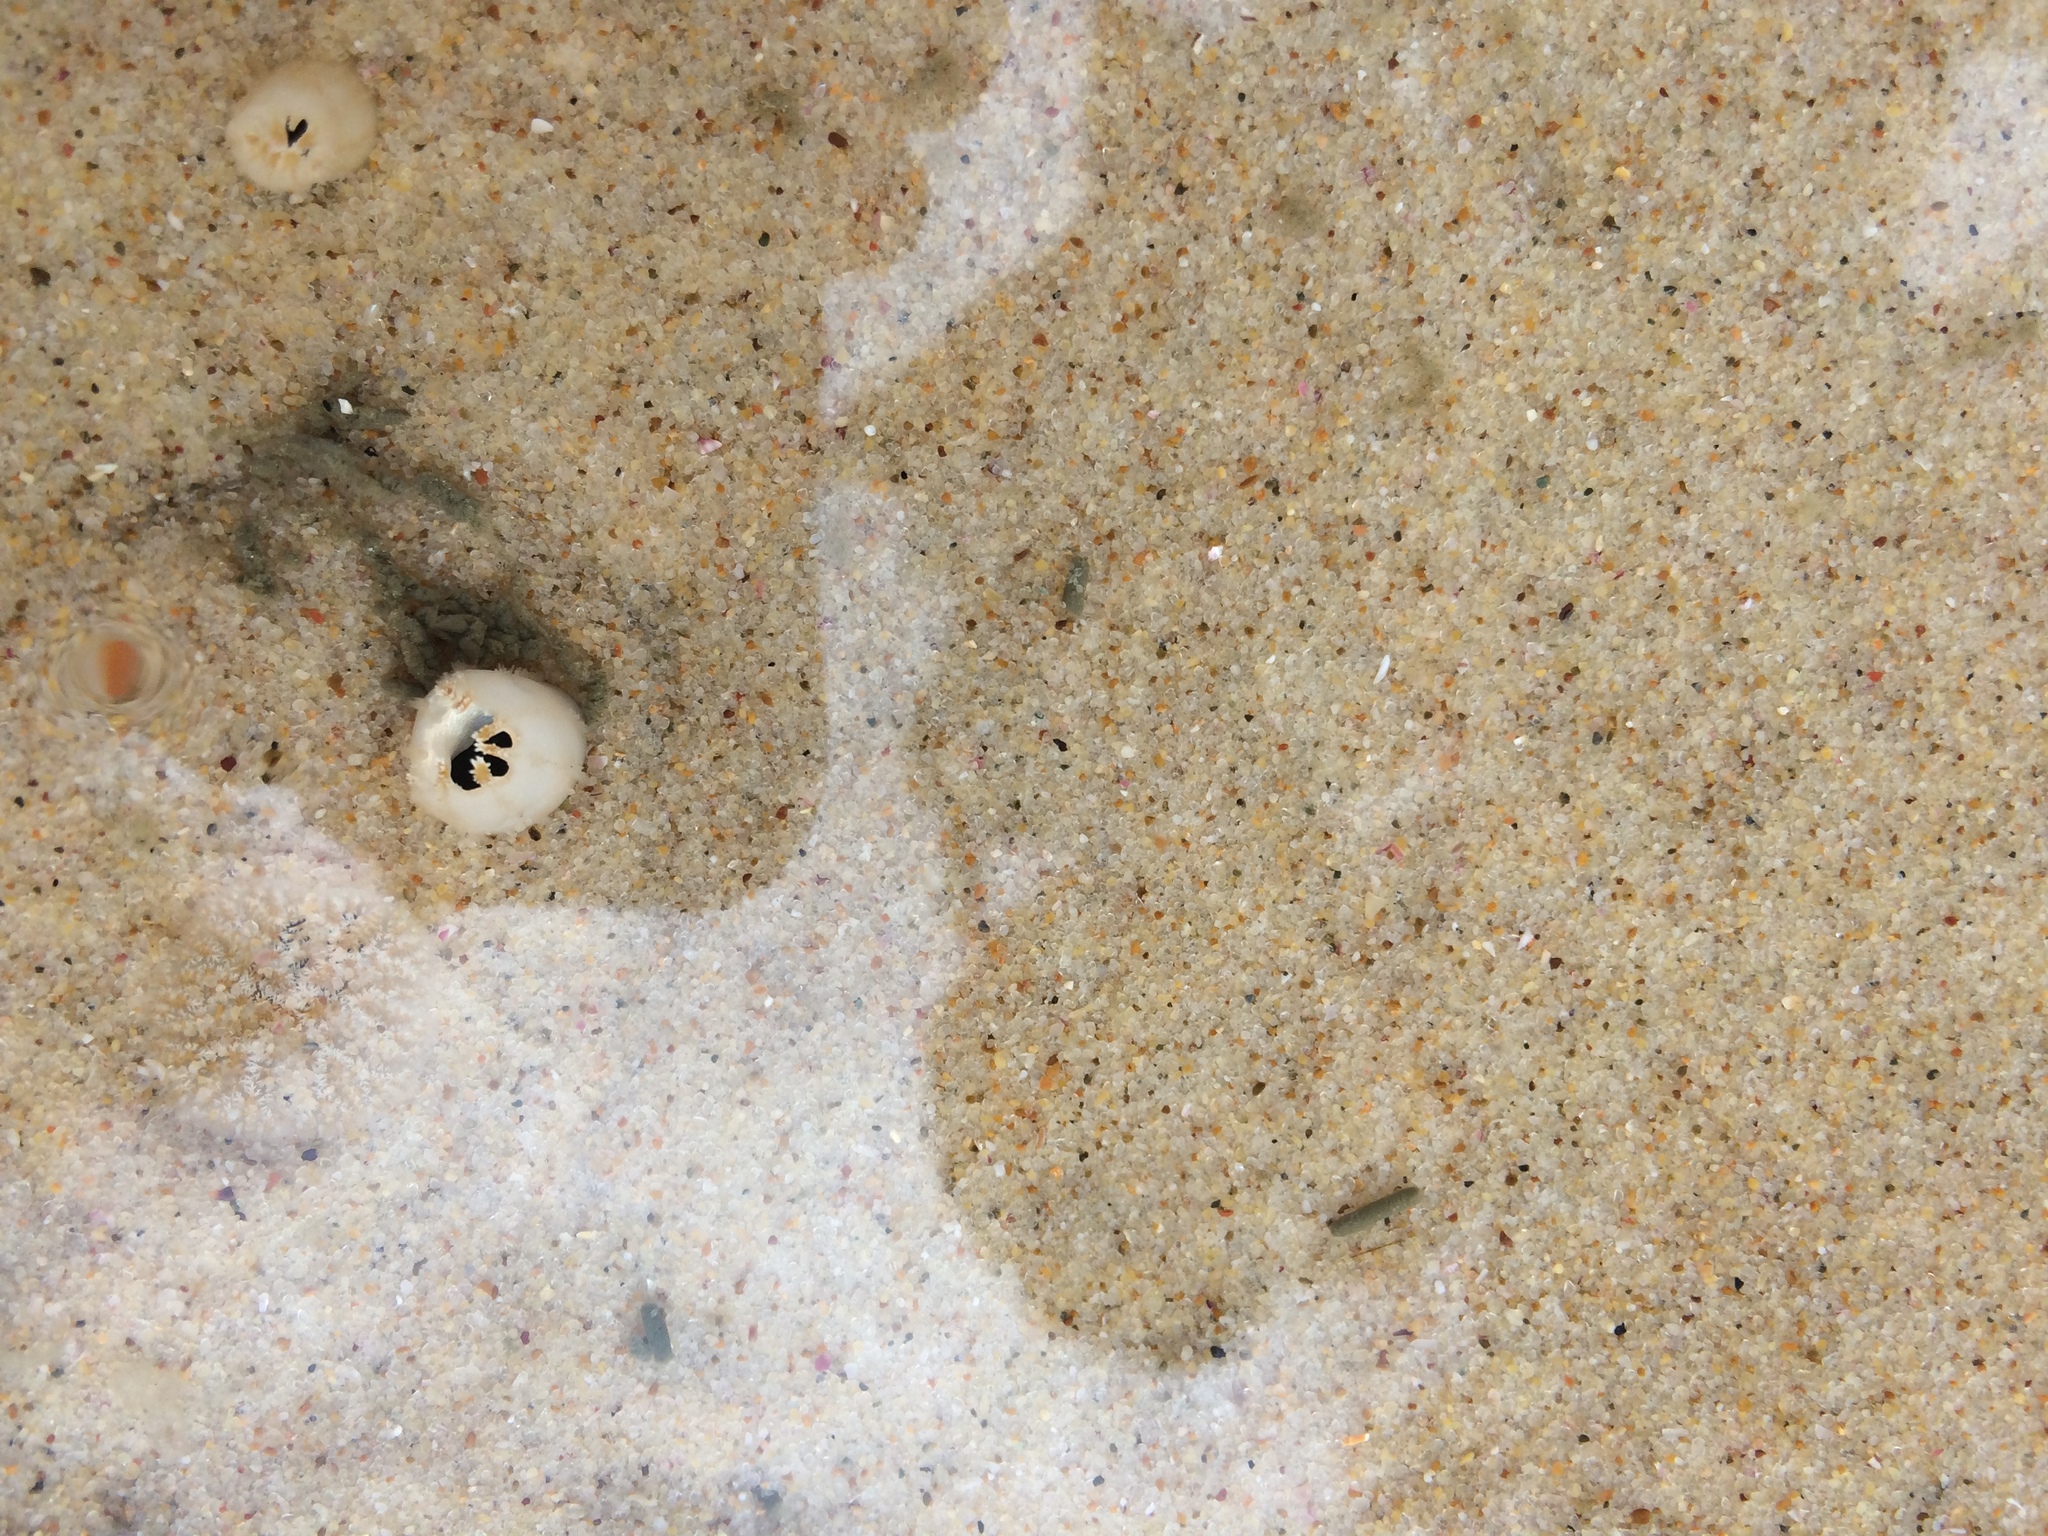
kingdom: Animalia
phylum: Mollusca
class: Bivalvia
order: Cardiida
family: Donacidae
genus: Latona
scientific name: Latona deltoides
